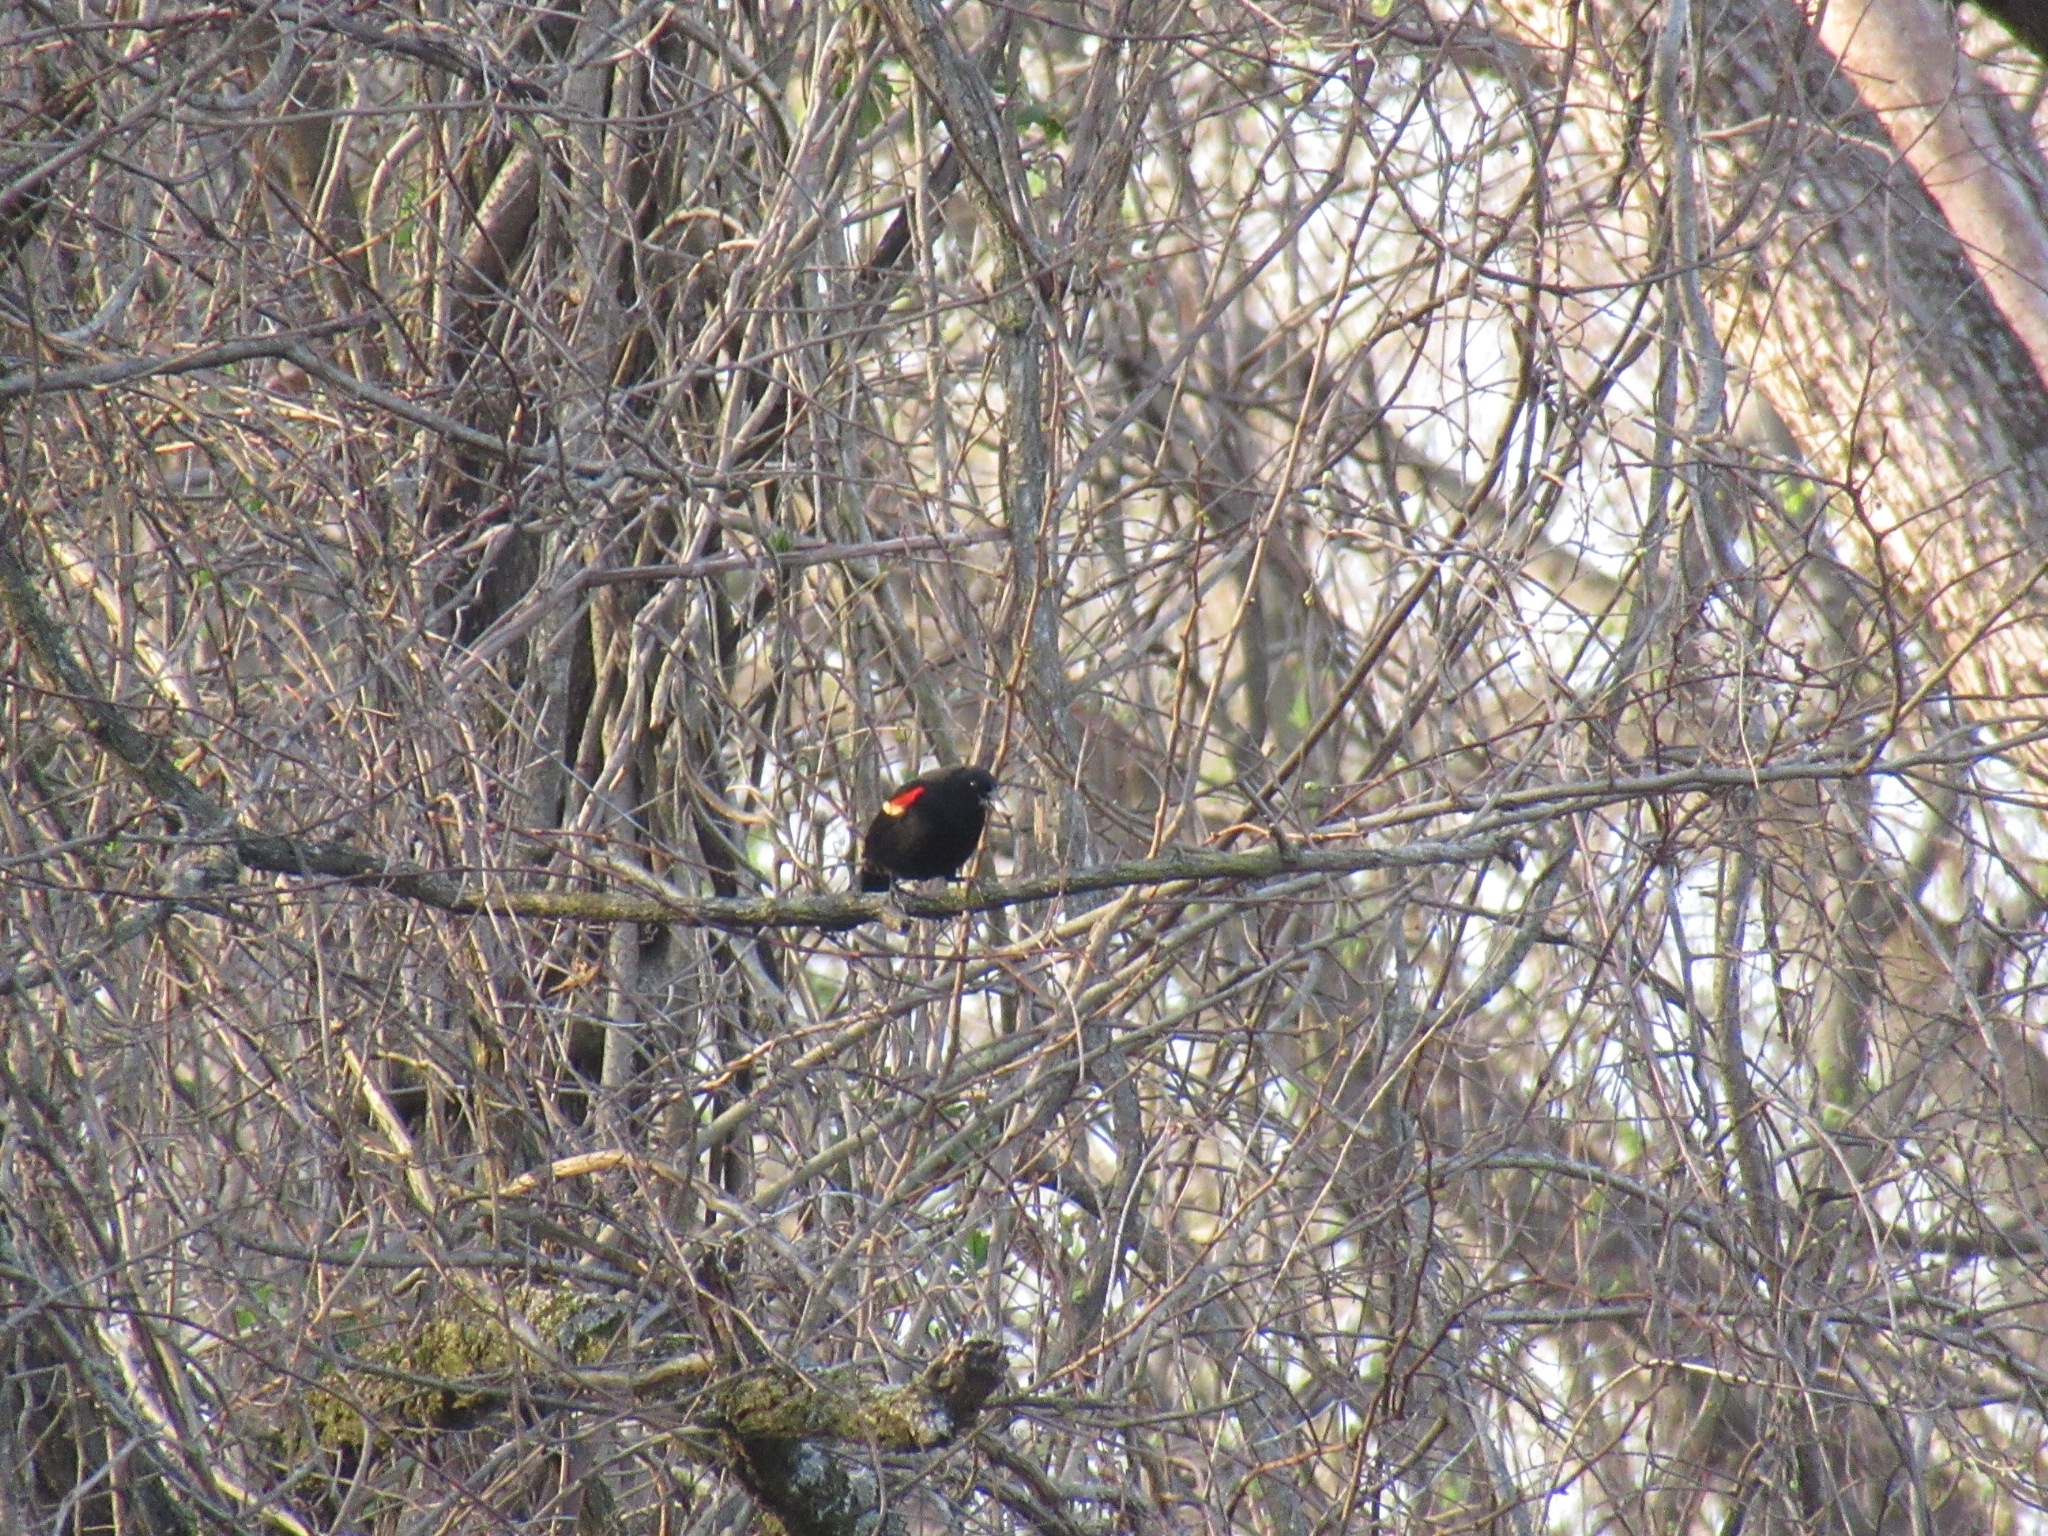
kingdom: Animalia
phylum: Chordata
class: Aves
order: Passeriformes
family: Icteridae
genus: Agelaius
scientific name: Agelaius phoeniceus
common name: Red-winged blackbird
